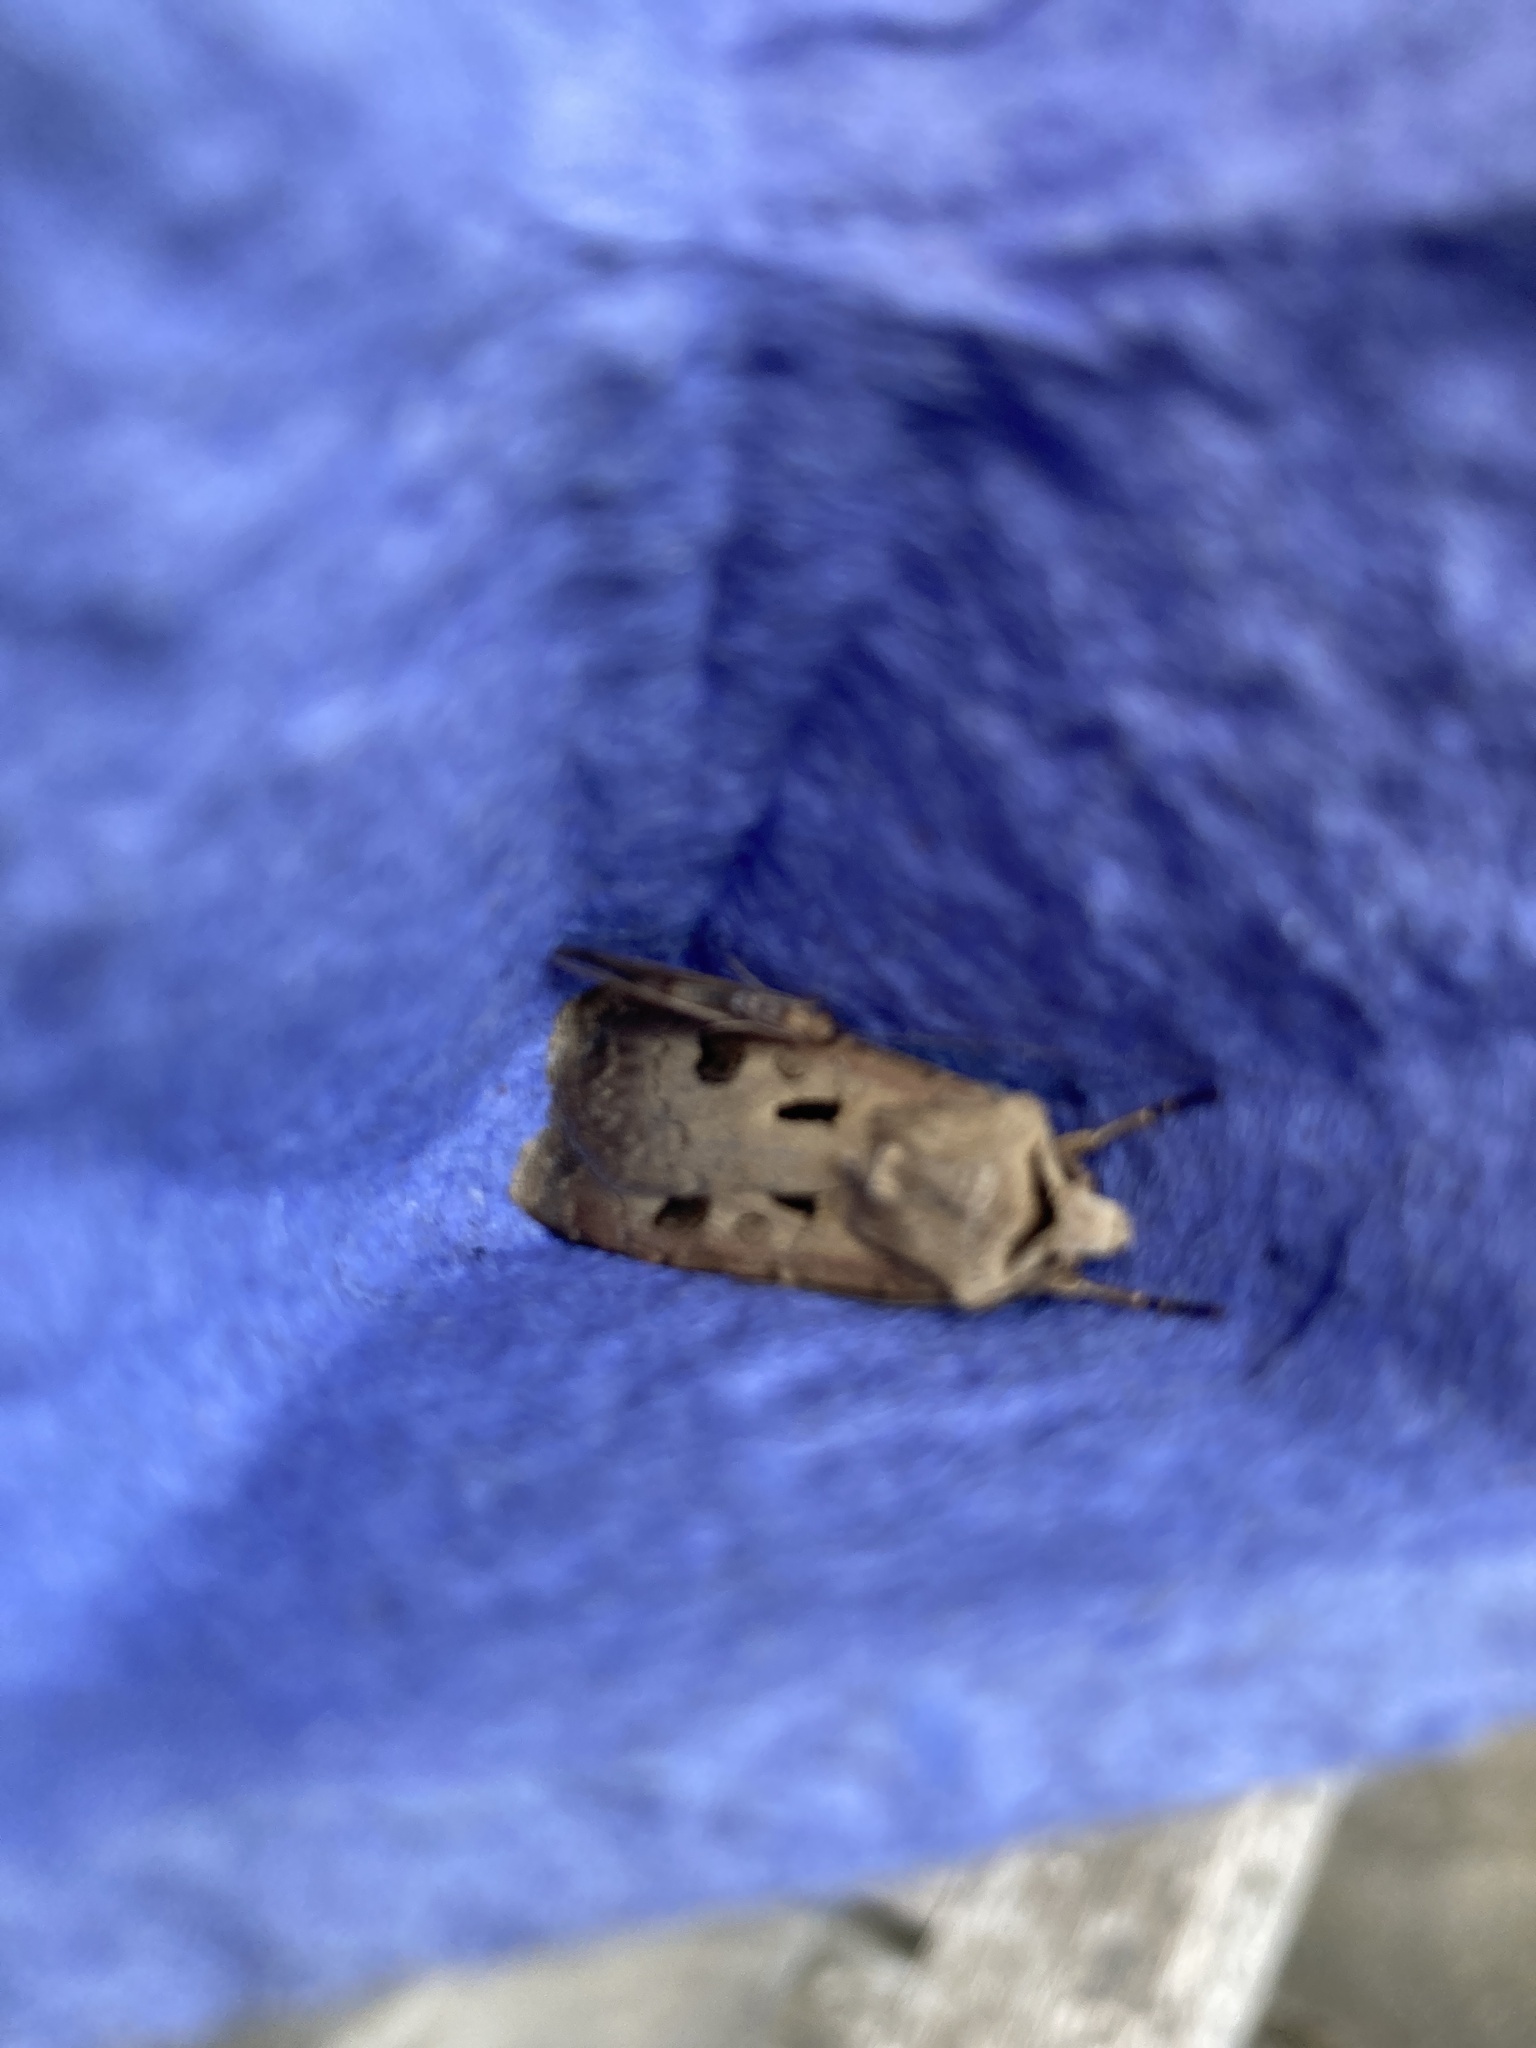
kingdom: Animalia
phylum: Arthropoda
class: Insecta
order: Lepidoptera
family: Noctuidae
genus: Agrotis
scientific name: Agrotis exclamationis
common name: Heart and dart
